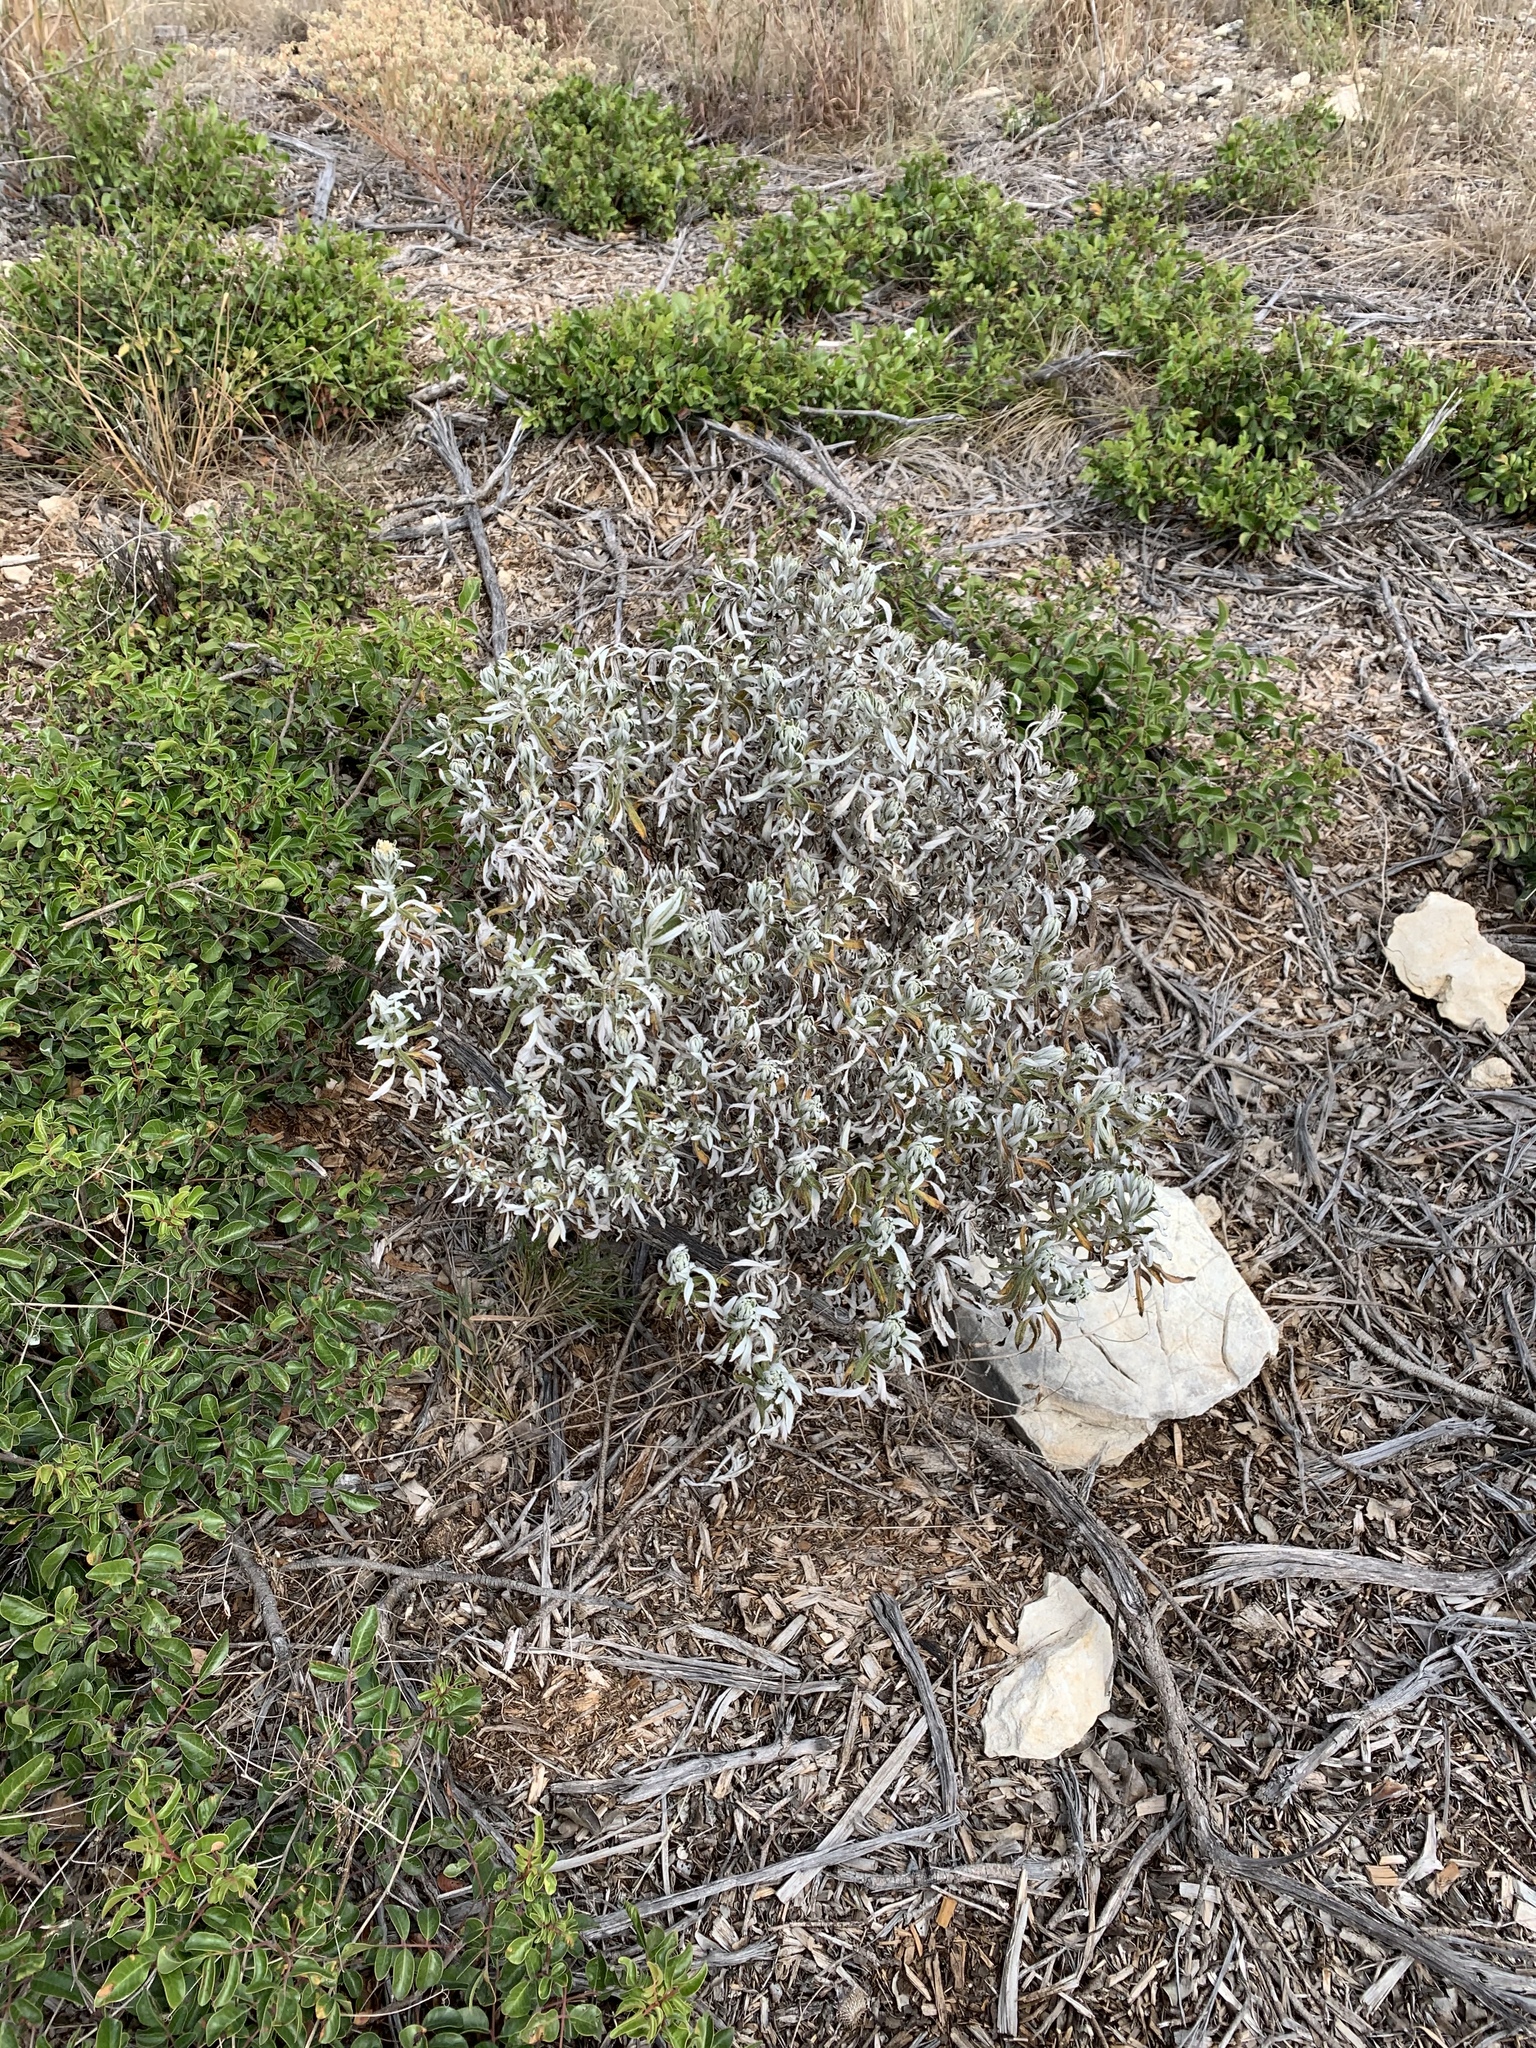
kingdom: Plantae
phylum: Tracheophyta
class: Magnoliopsida
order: Asterales
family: Asteraceae
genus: Pseudognaphalium
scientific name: Pseudognaphalium obtusifolium
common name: Eastern rabbit-tobacco
